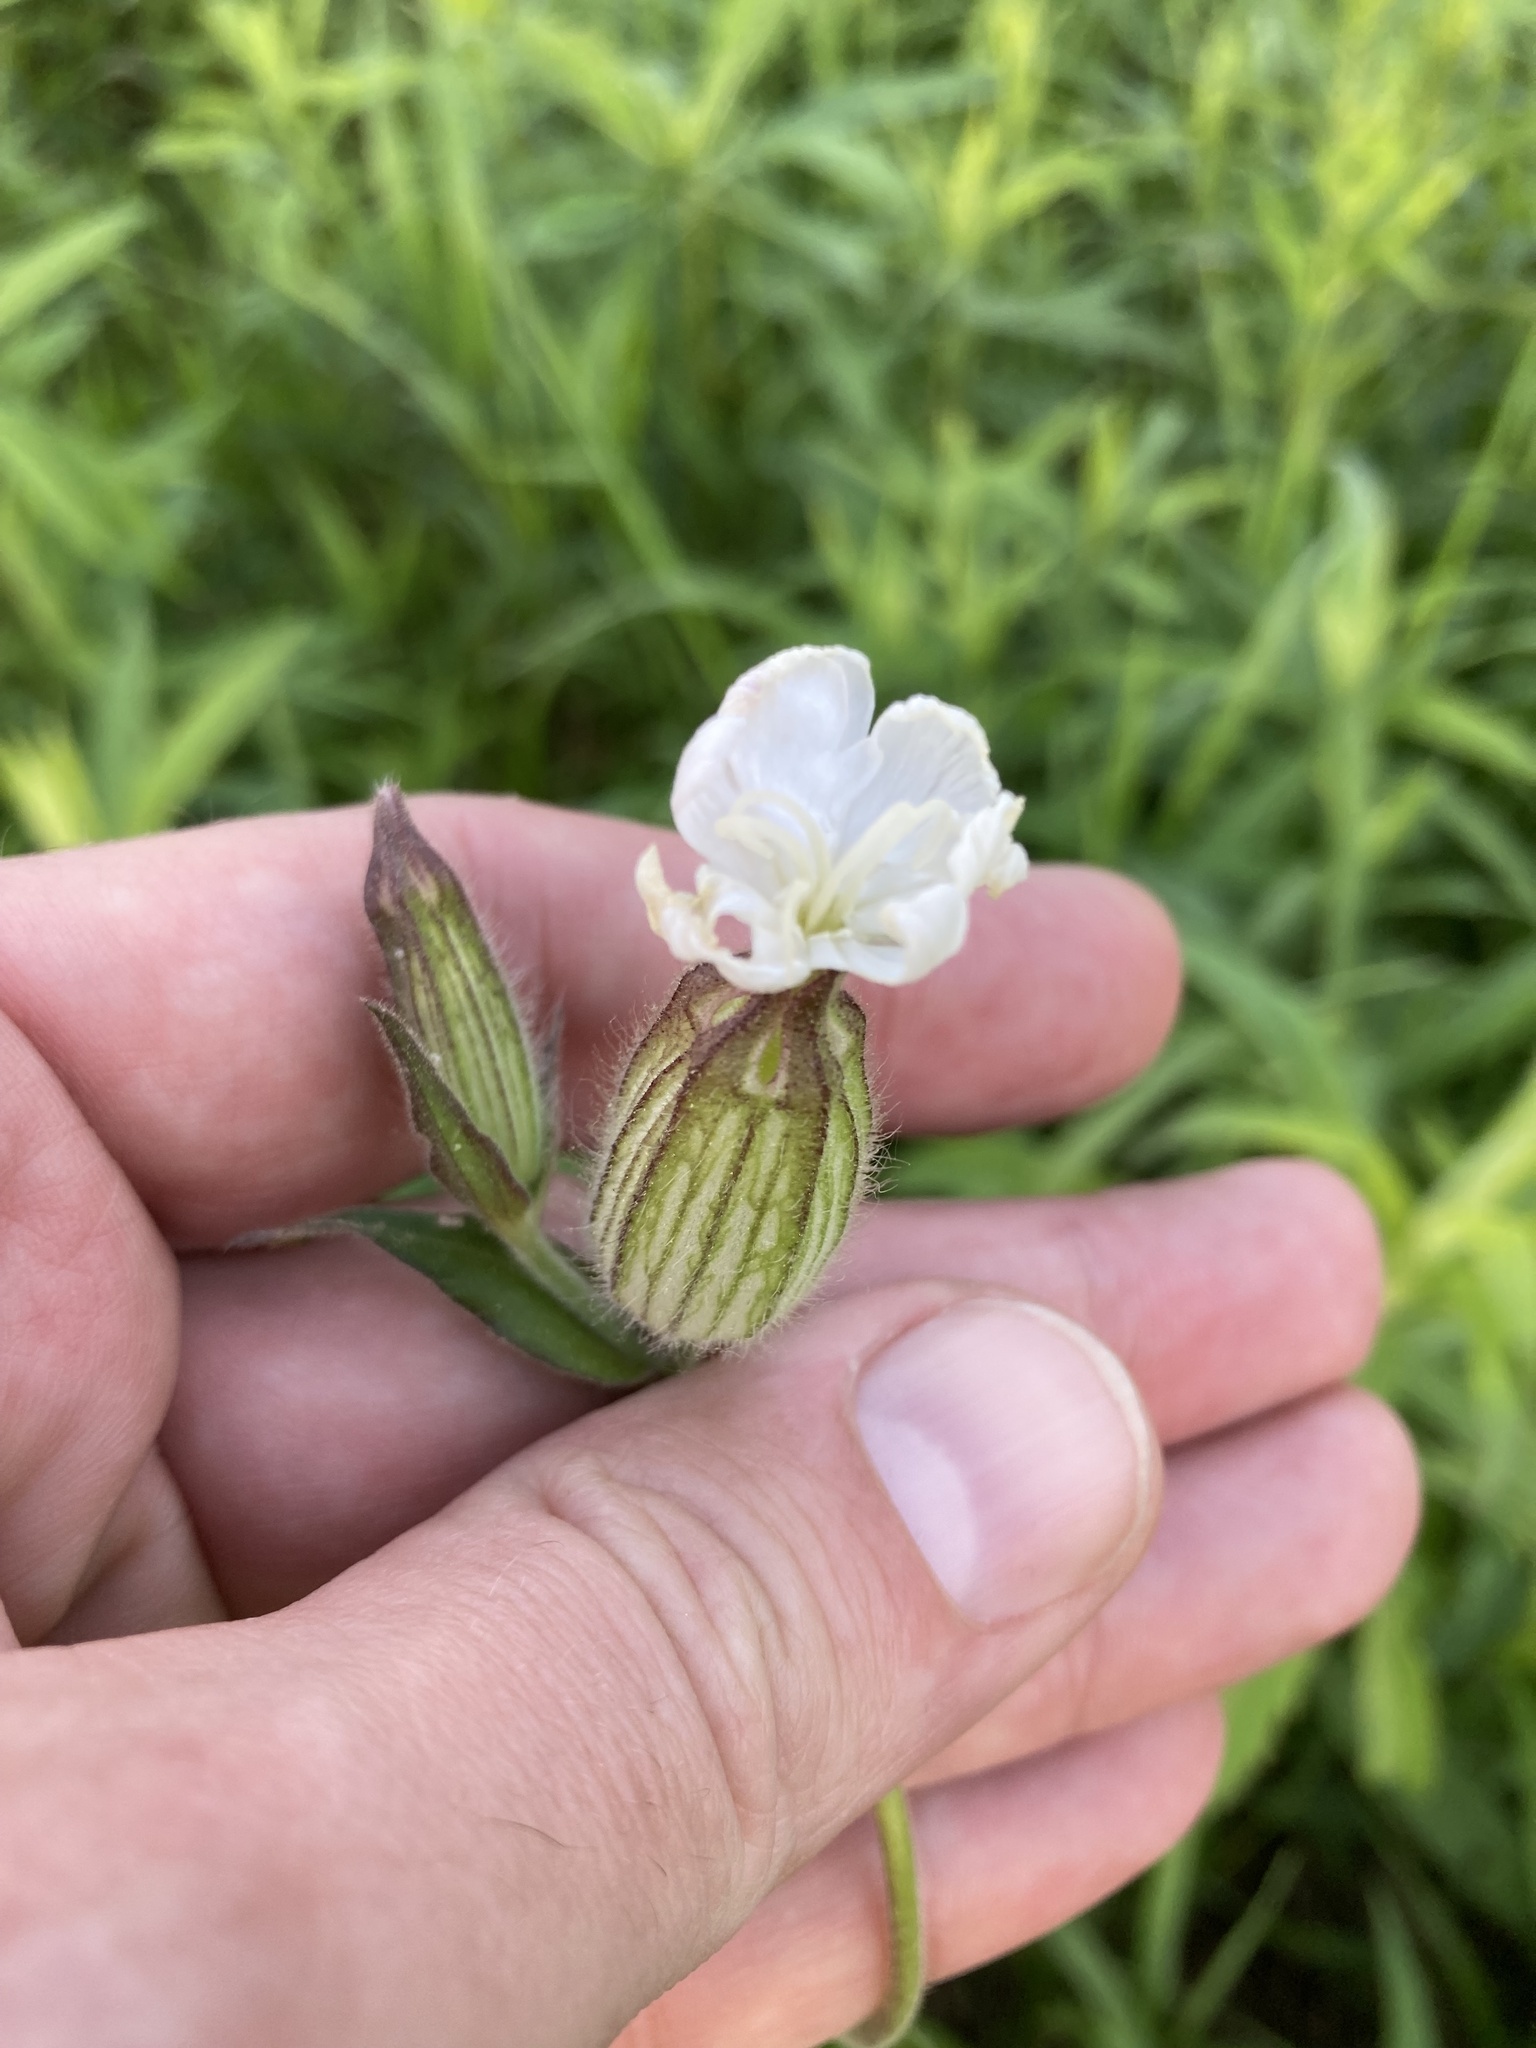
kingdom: Plantae
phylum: Tracheophyta
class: Magnoliopsida
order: Caryophyllales
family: Caryophyllaceae
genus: Silene
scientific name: Silene latifolia
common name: White campion
